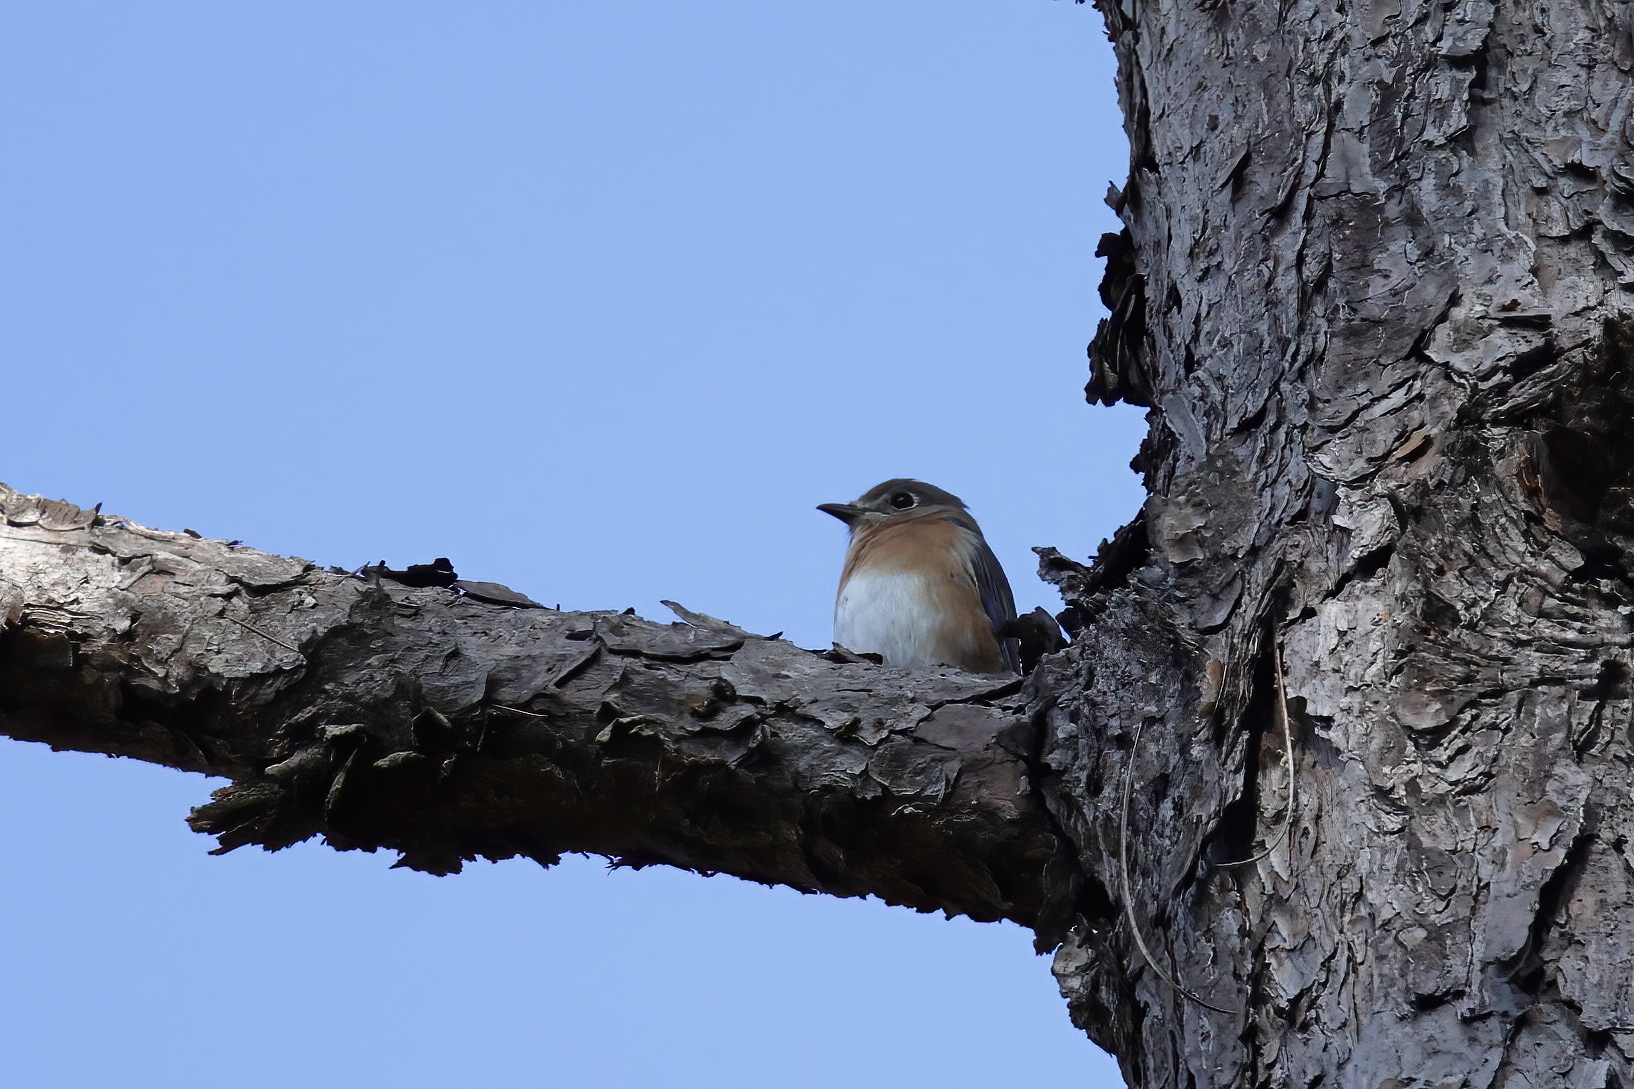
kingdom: Animalia
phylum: Chordata
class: Aves
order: Passeriformes
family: Turdidae
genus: Sialia
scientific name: Sialia sialis
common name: Eastern bluebird
